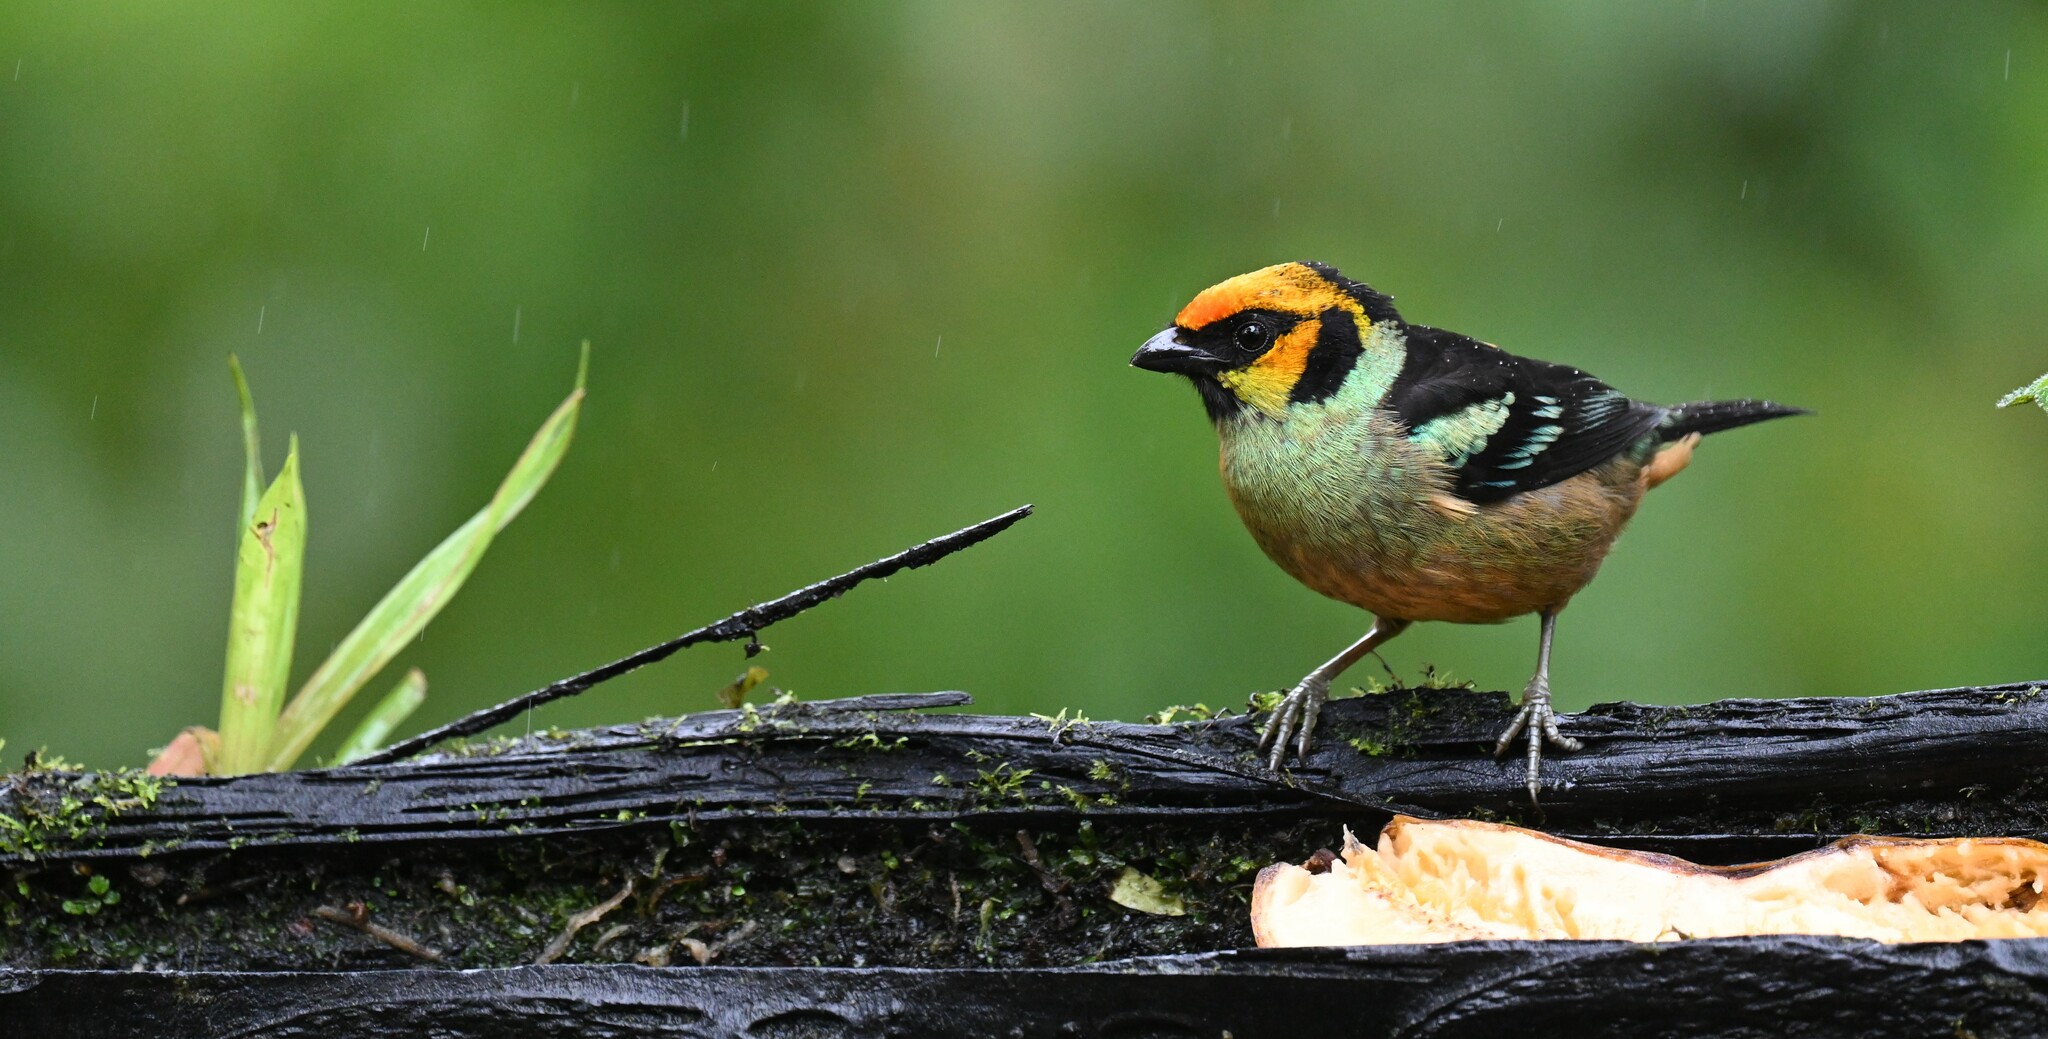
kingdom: Animalia
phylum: Chordata
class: Aves
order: Passeriformes
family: Thraupidae
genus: Tangara
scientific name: Tangara parzudakii
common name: Flame-faced tanager
